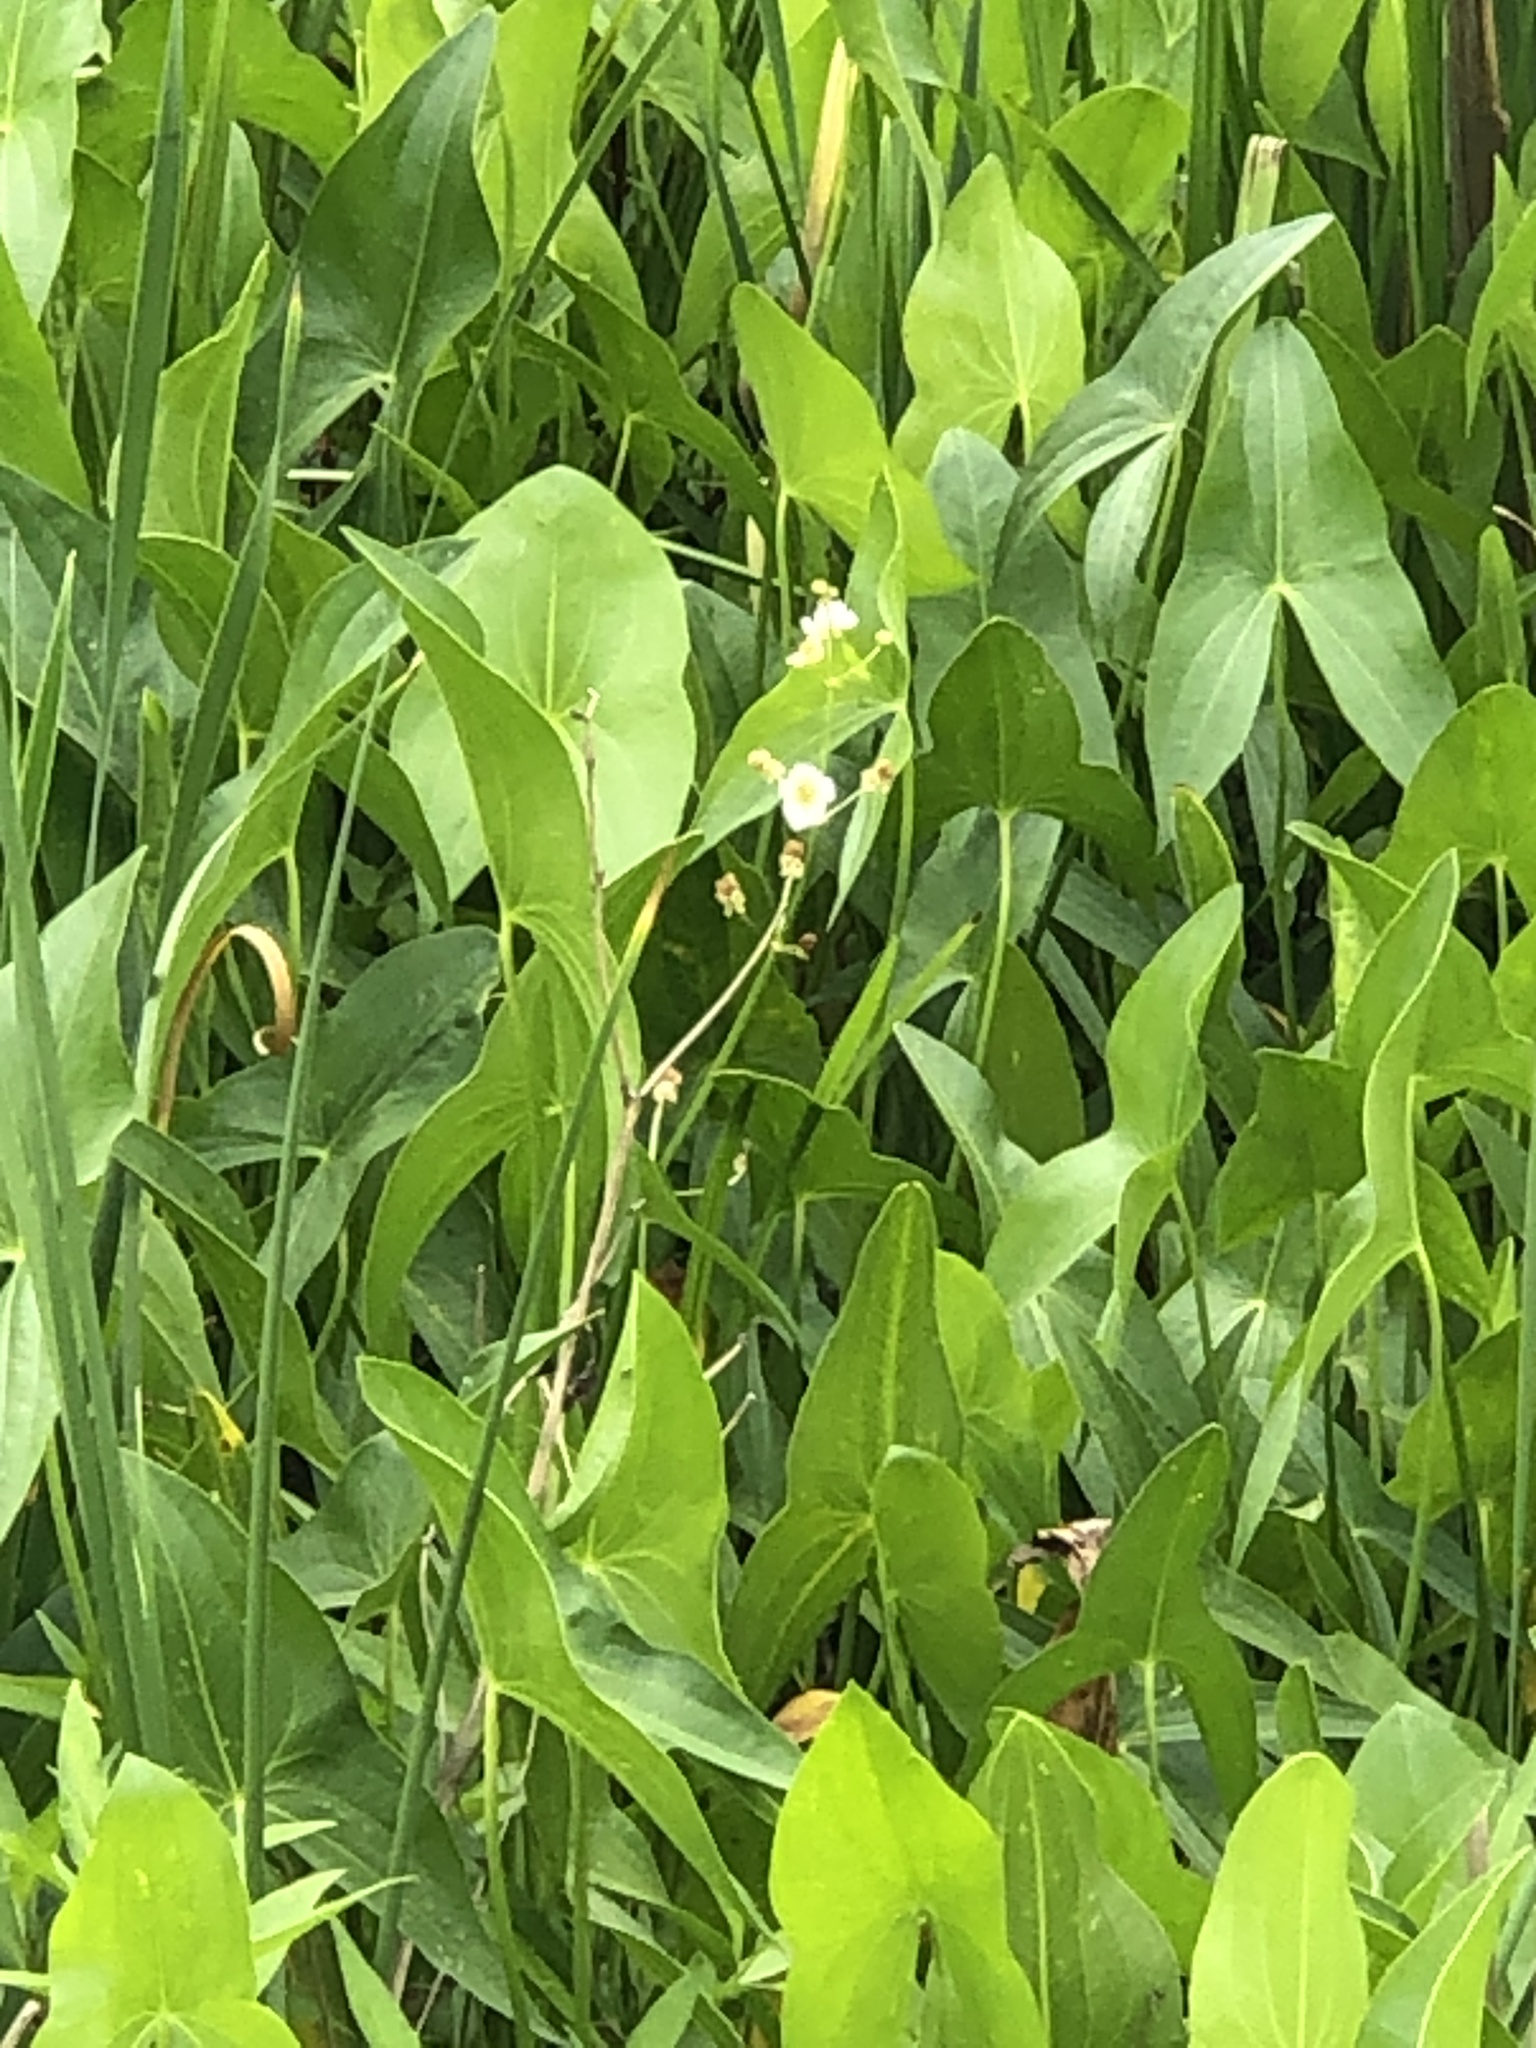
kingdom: Plantae
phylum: Tracheophyta
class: Liliopsida
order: Alismatales
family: Alismataceae
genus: Sagittaria
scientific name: Sagittaria latifolia
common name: Duck-potato
